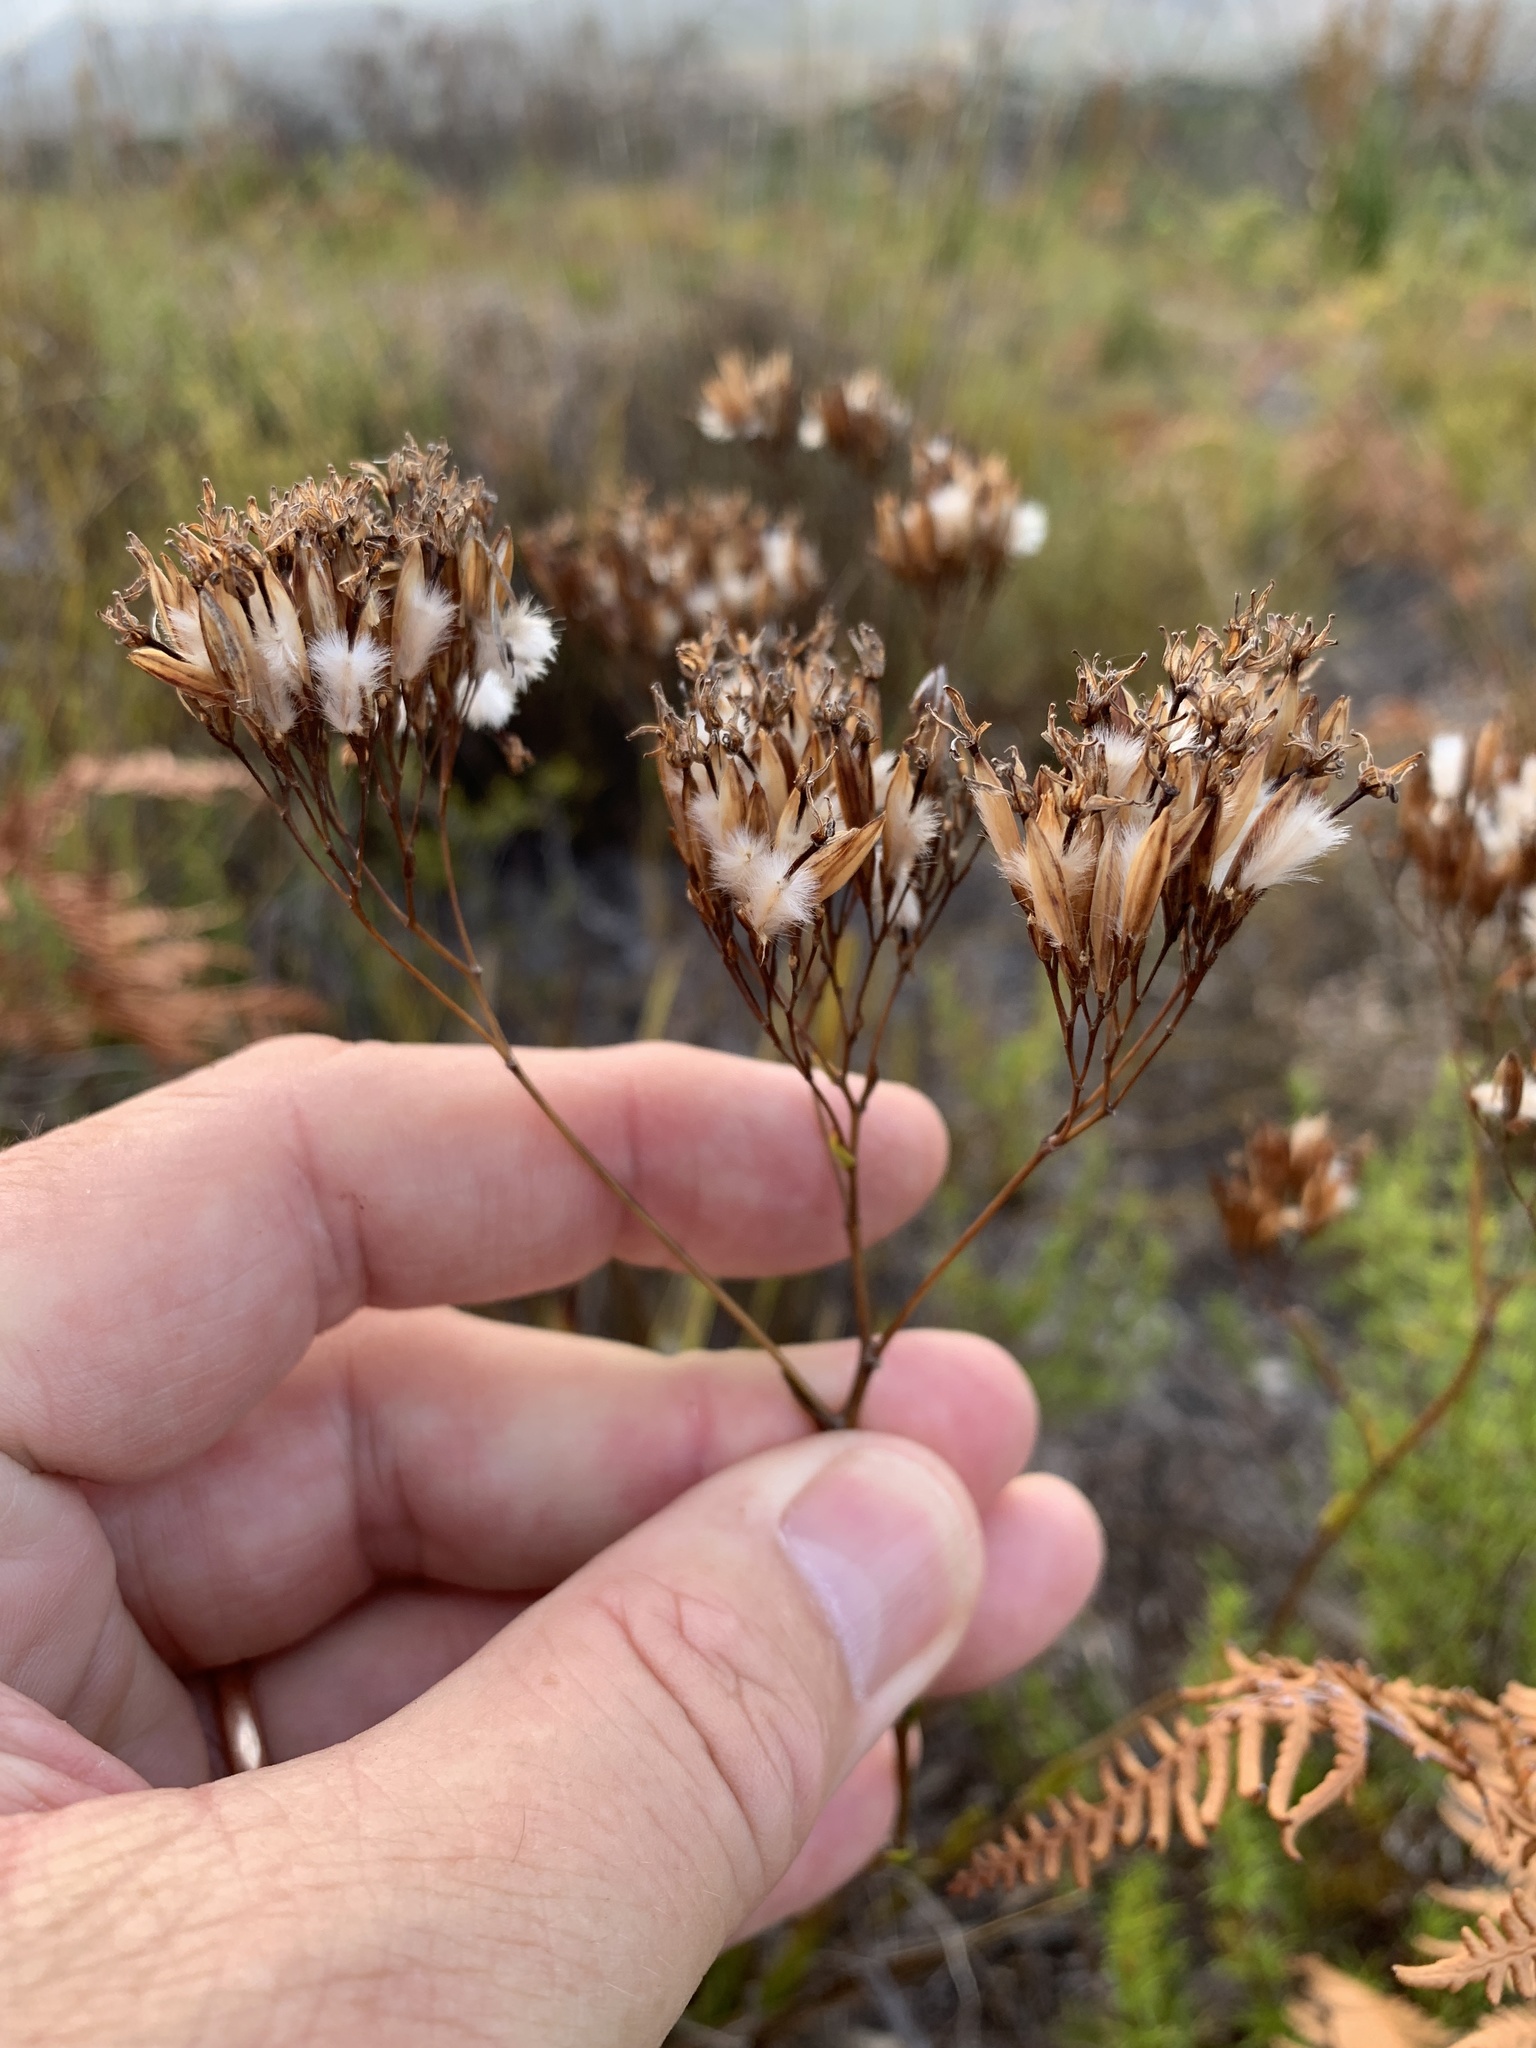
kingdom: Plantae
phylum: Tracheophyta
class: Magnoliopsida
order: Asterales
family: Asteraceae
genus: Corymbium
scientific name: Corymbium glabrum
